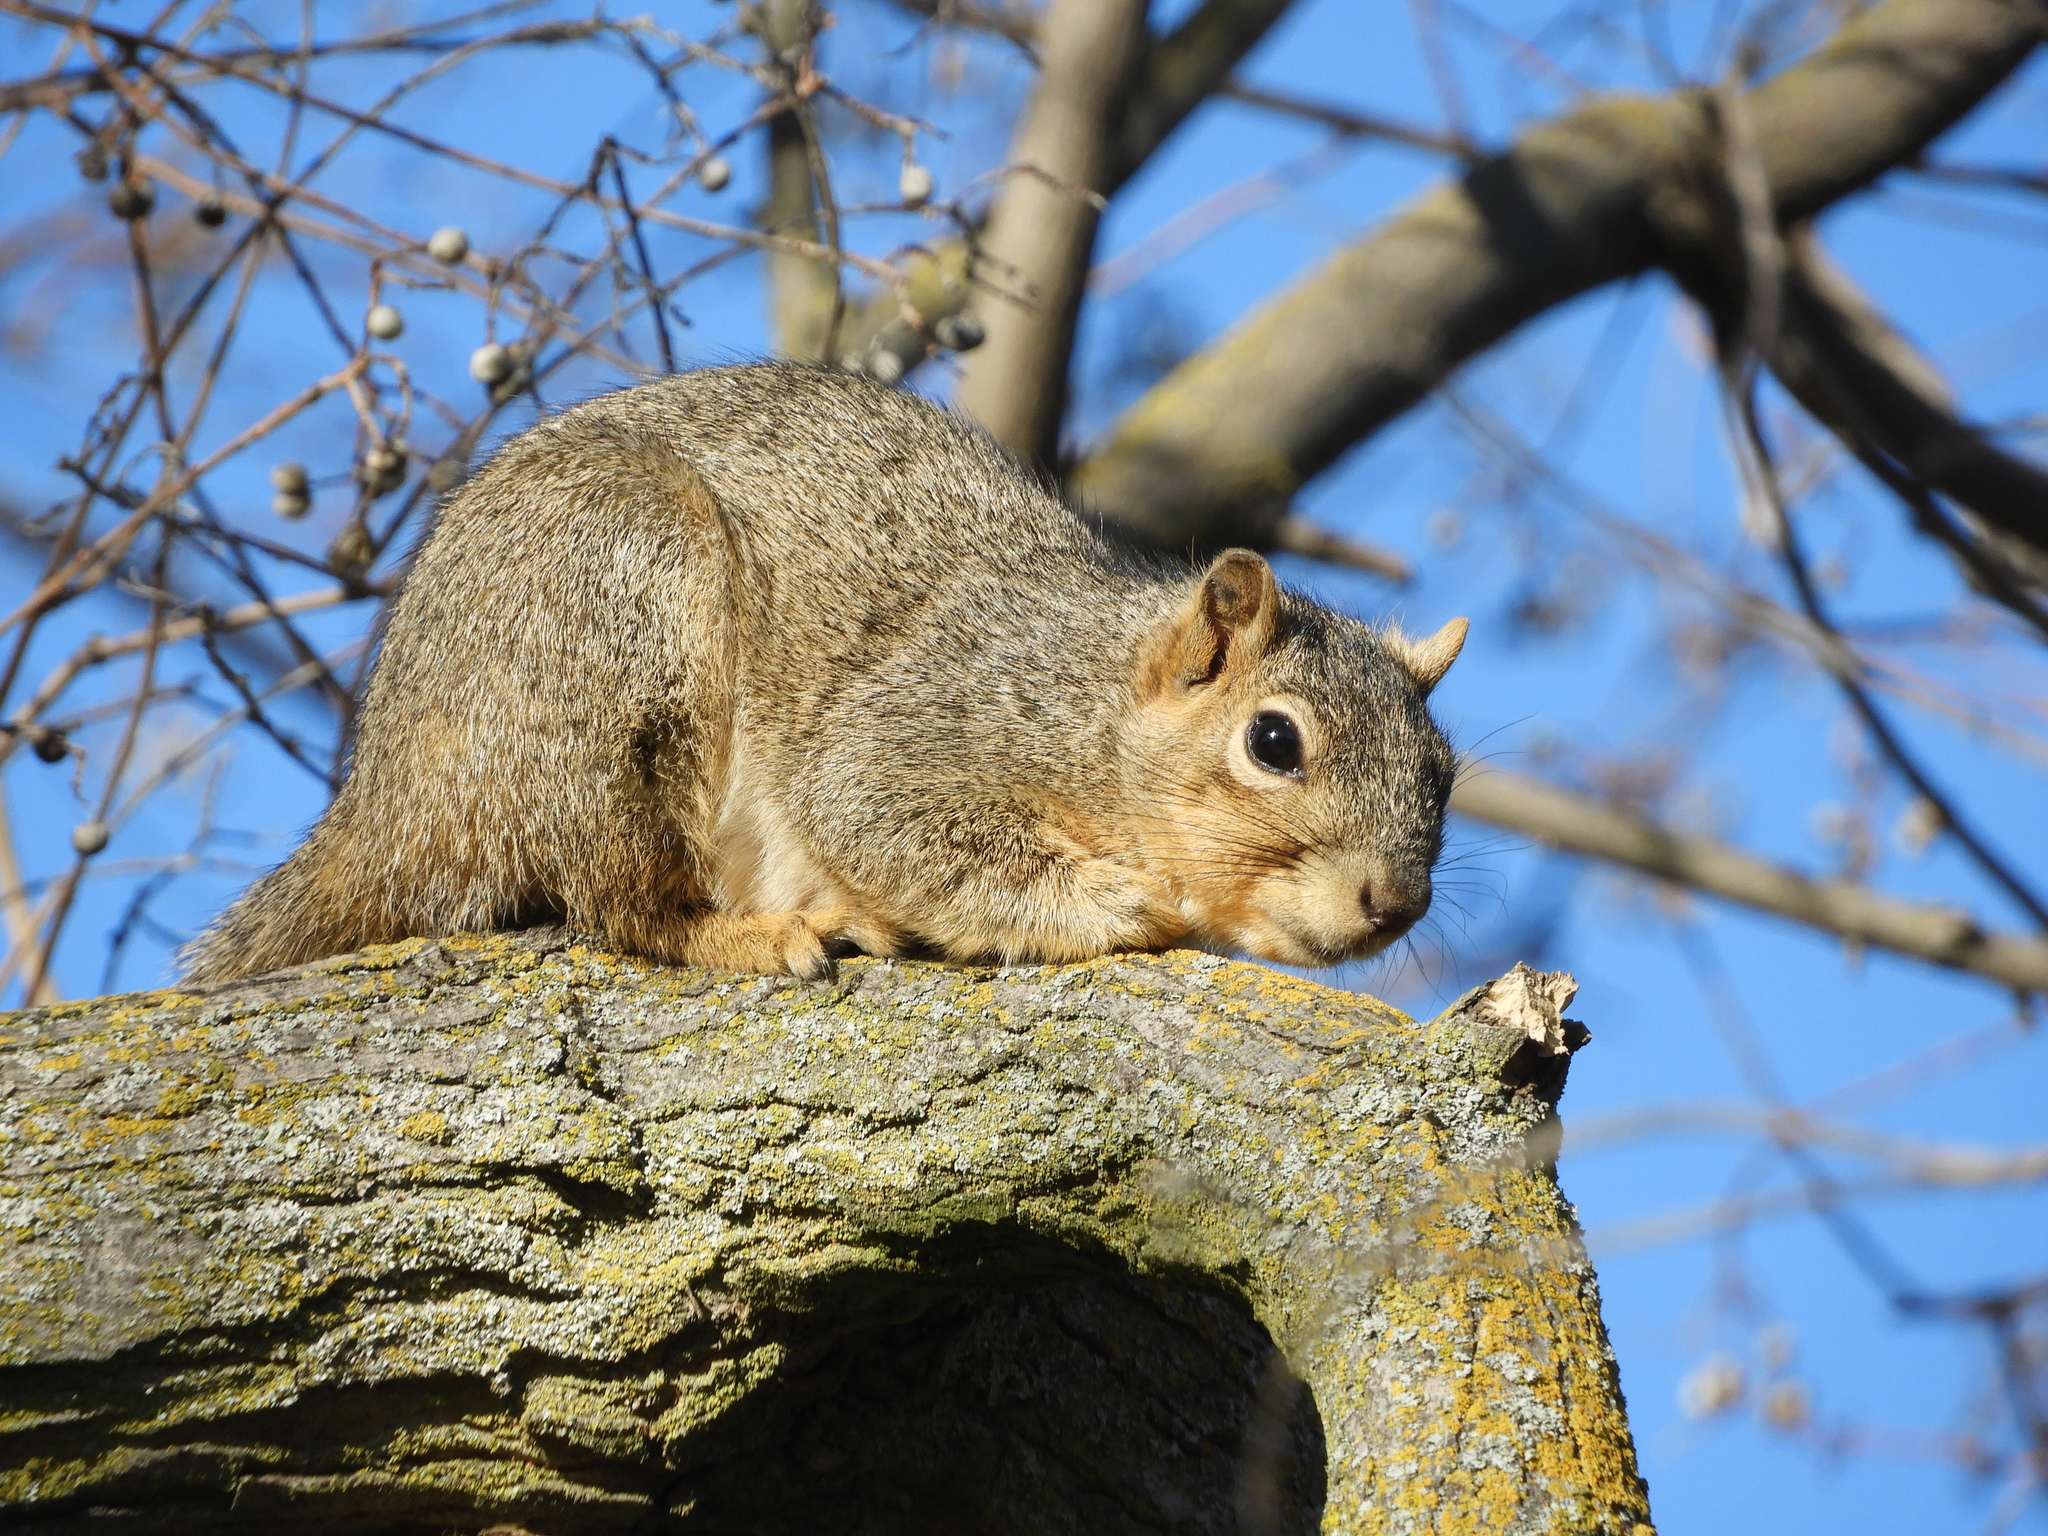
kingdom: Animalia
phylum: Chordata
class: Mammalia
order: Rodentia
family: Sciuridae
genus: Sciurus
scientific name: Sciurus niger
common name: Fox squirrel
